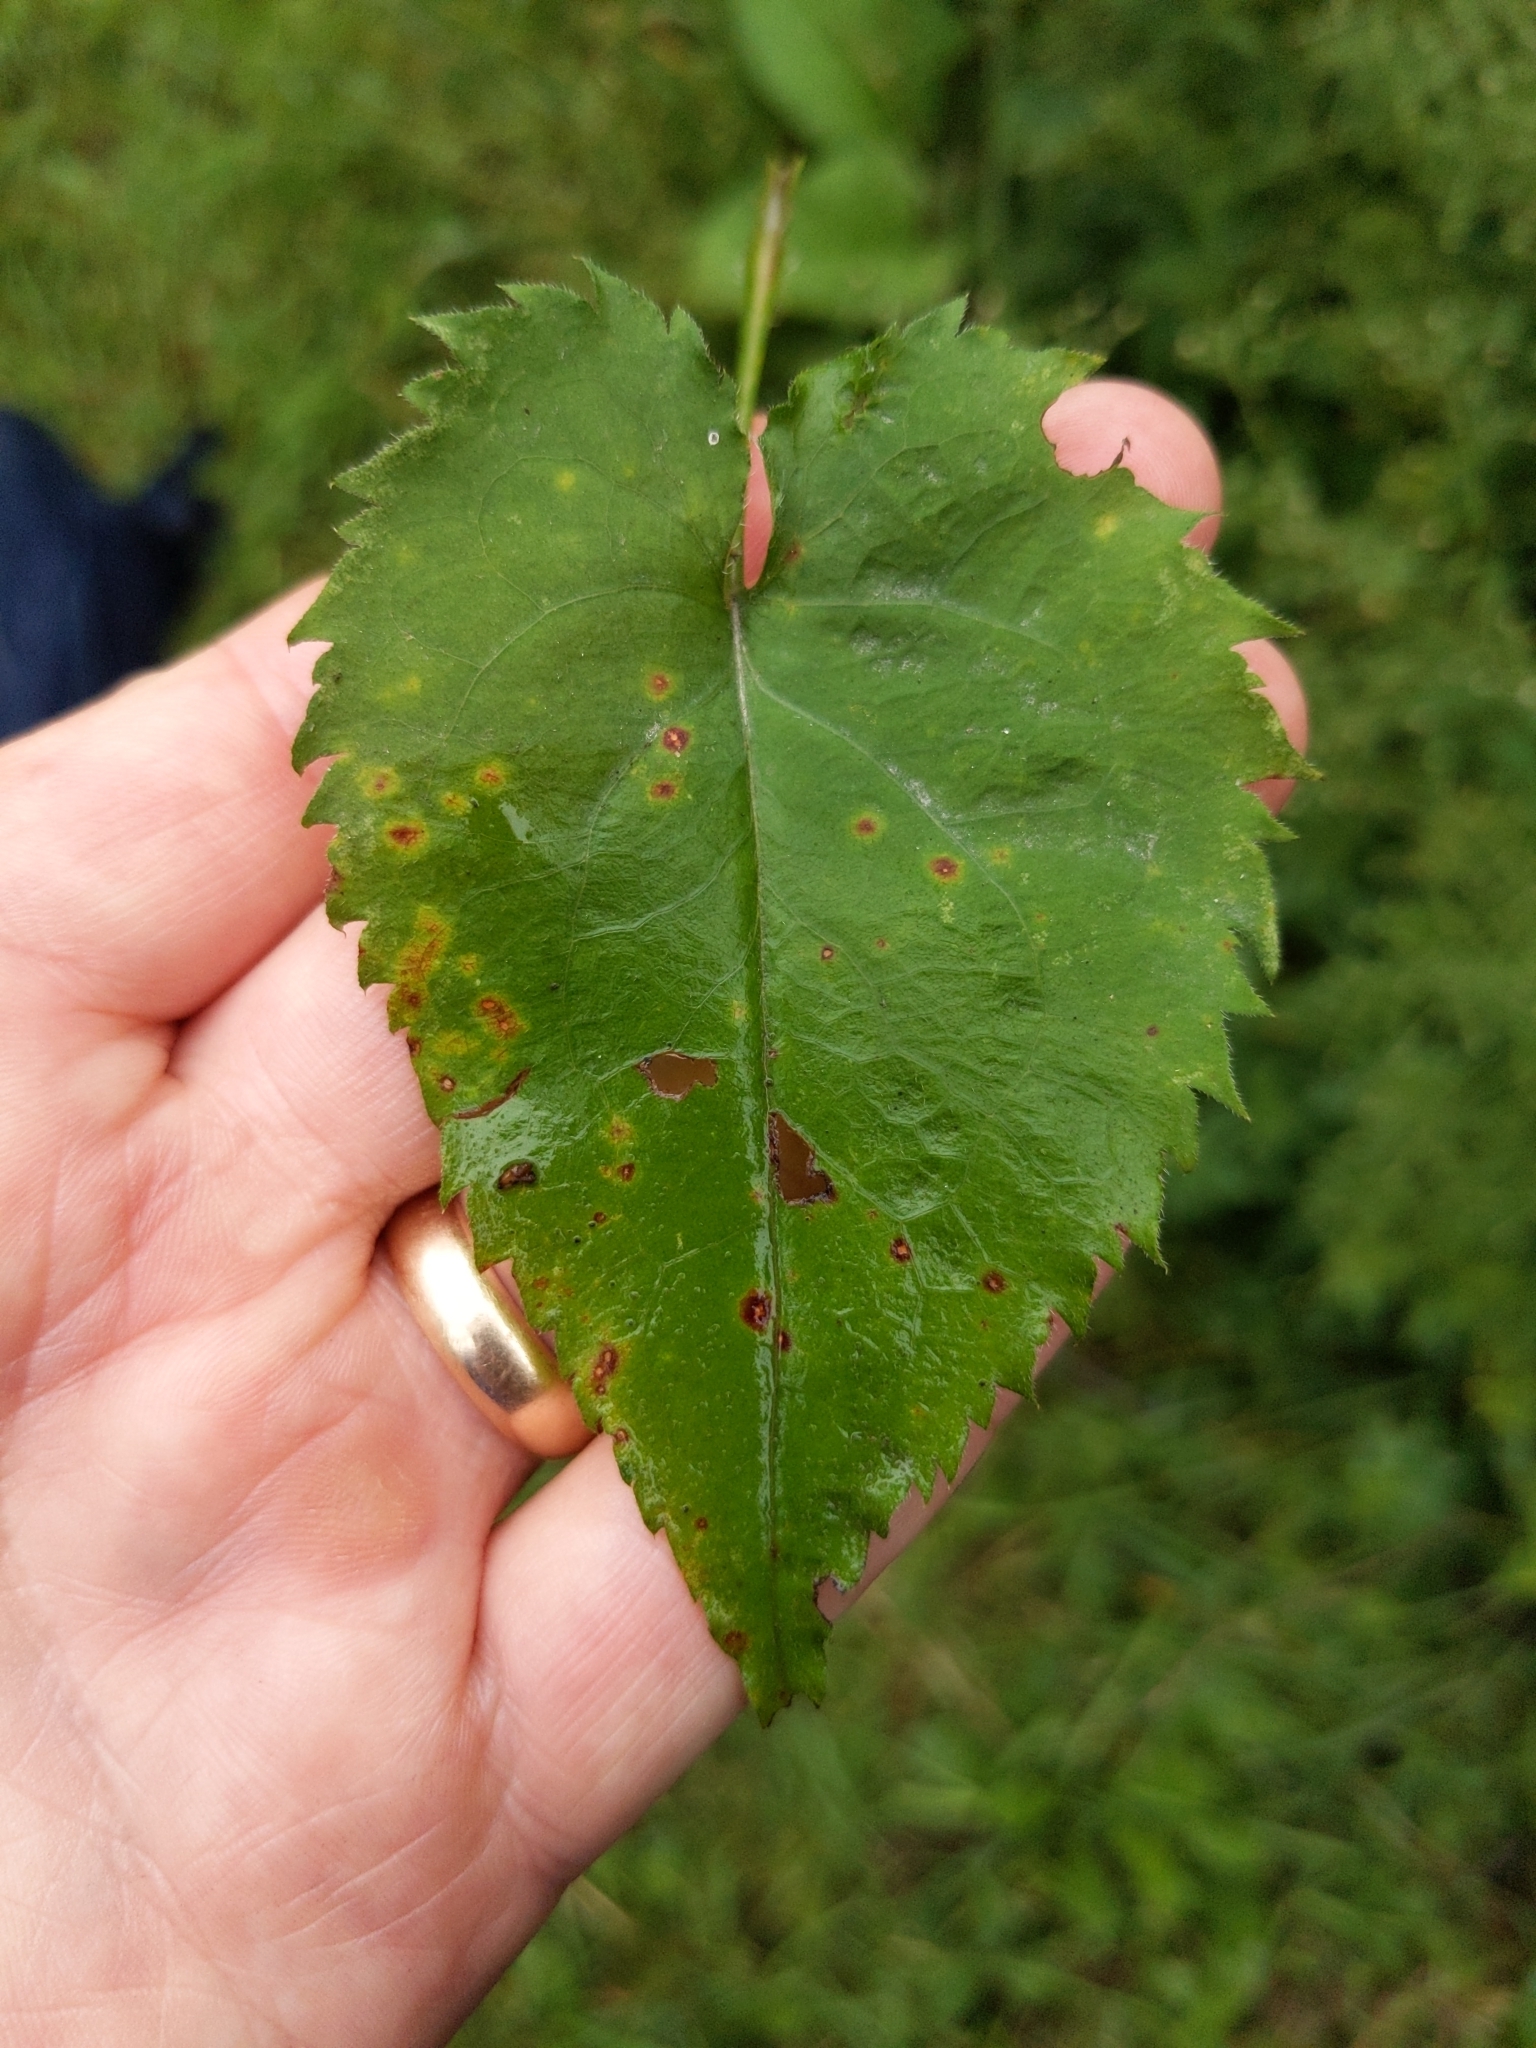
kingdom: Plantae
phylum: Tracheophyta
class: Magnoliopsida
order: Asterales
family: Asteraceae
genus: Symphyotrichum
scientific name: Symphyotrichum cordifolium
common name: Beeweed
